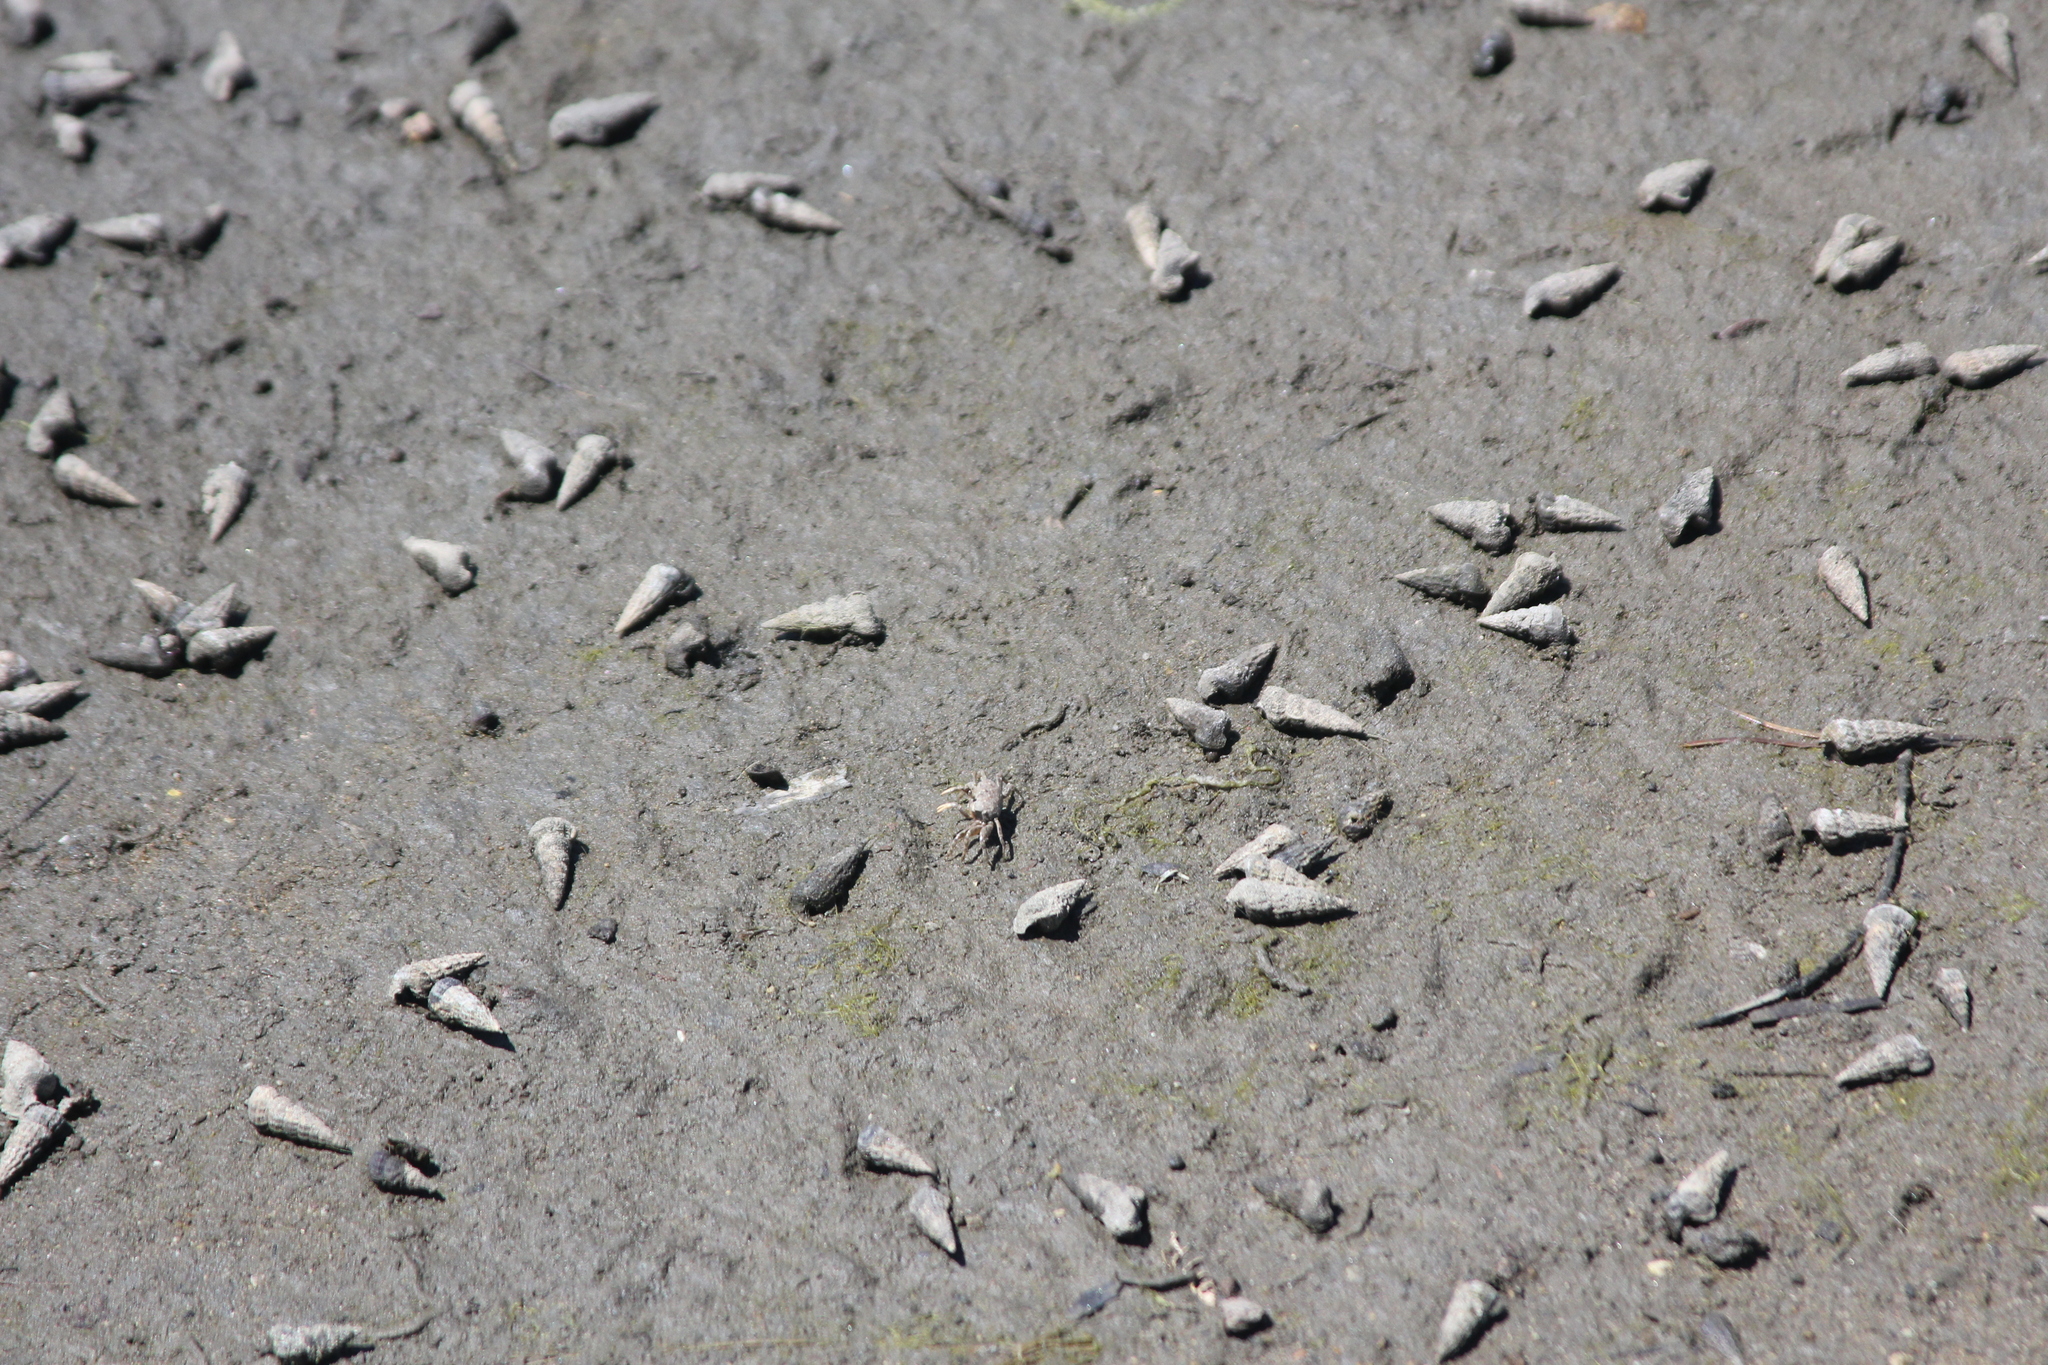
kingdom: Animalia
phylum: Mollusca
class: Gastropoda
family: Potamididae
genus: Cerithideopsis
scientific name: Cerithideopsis californica
